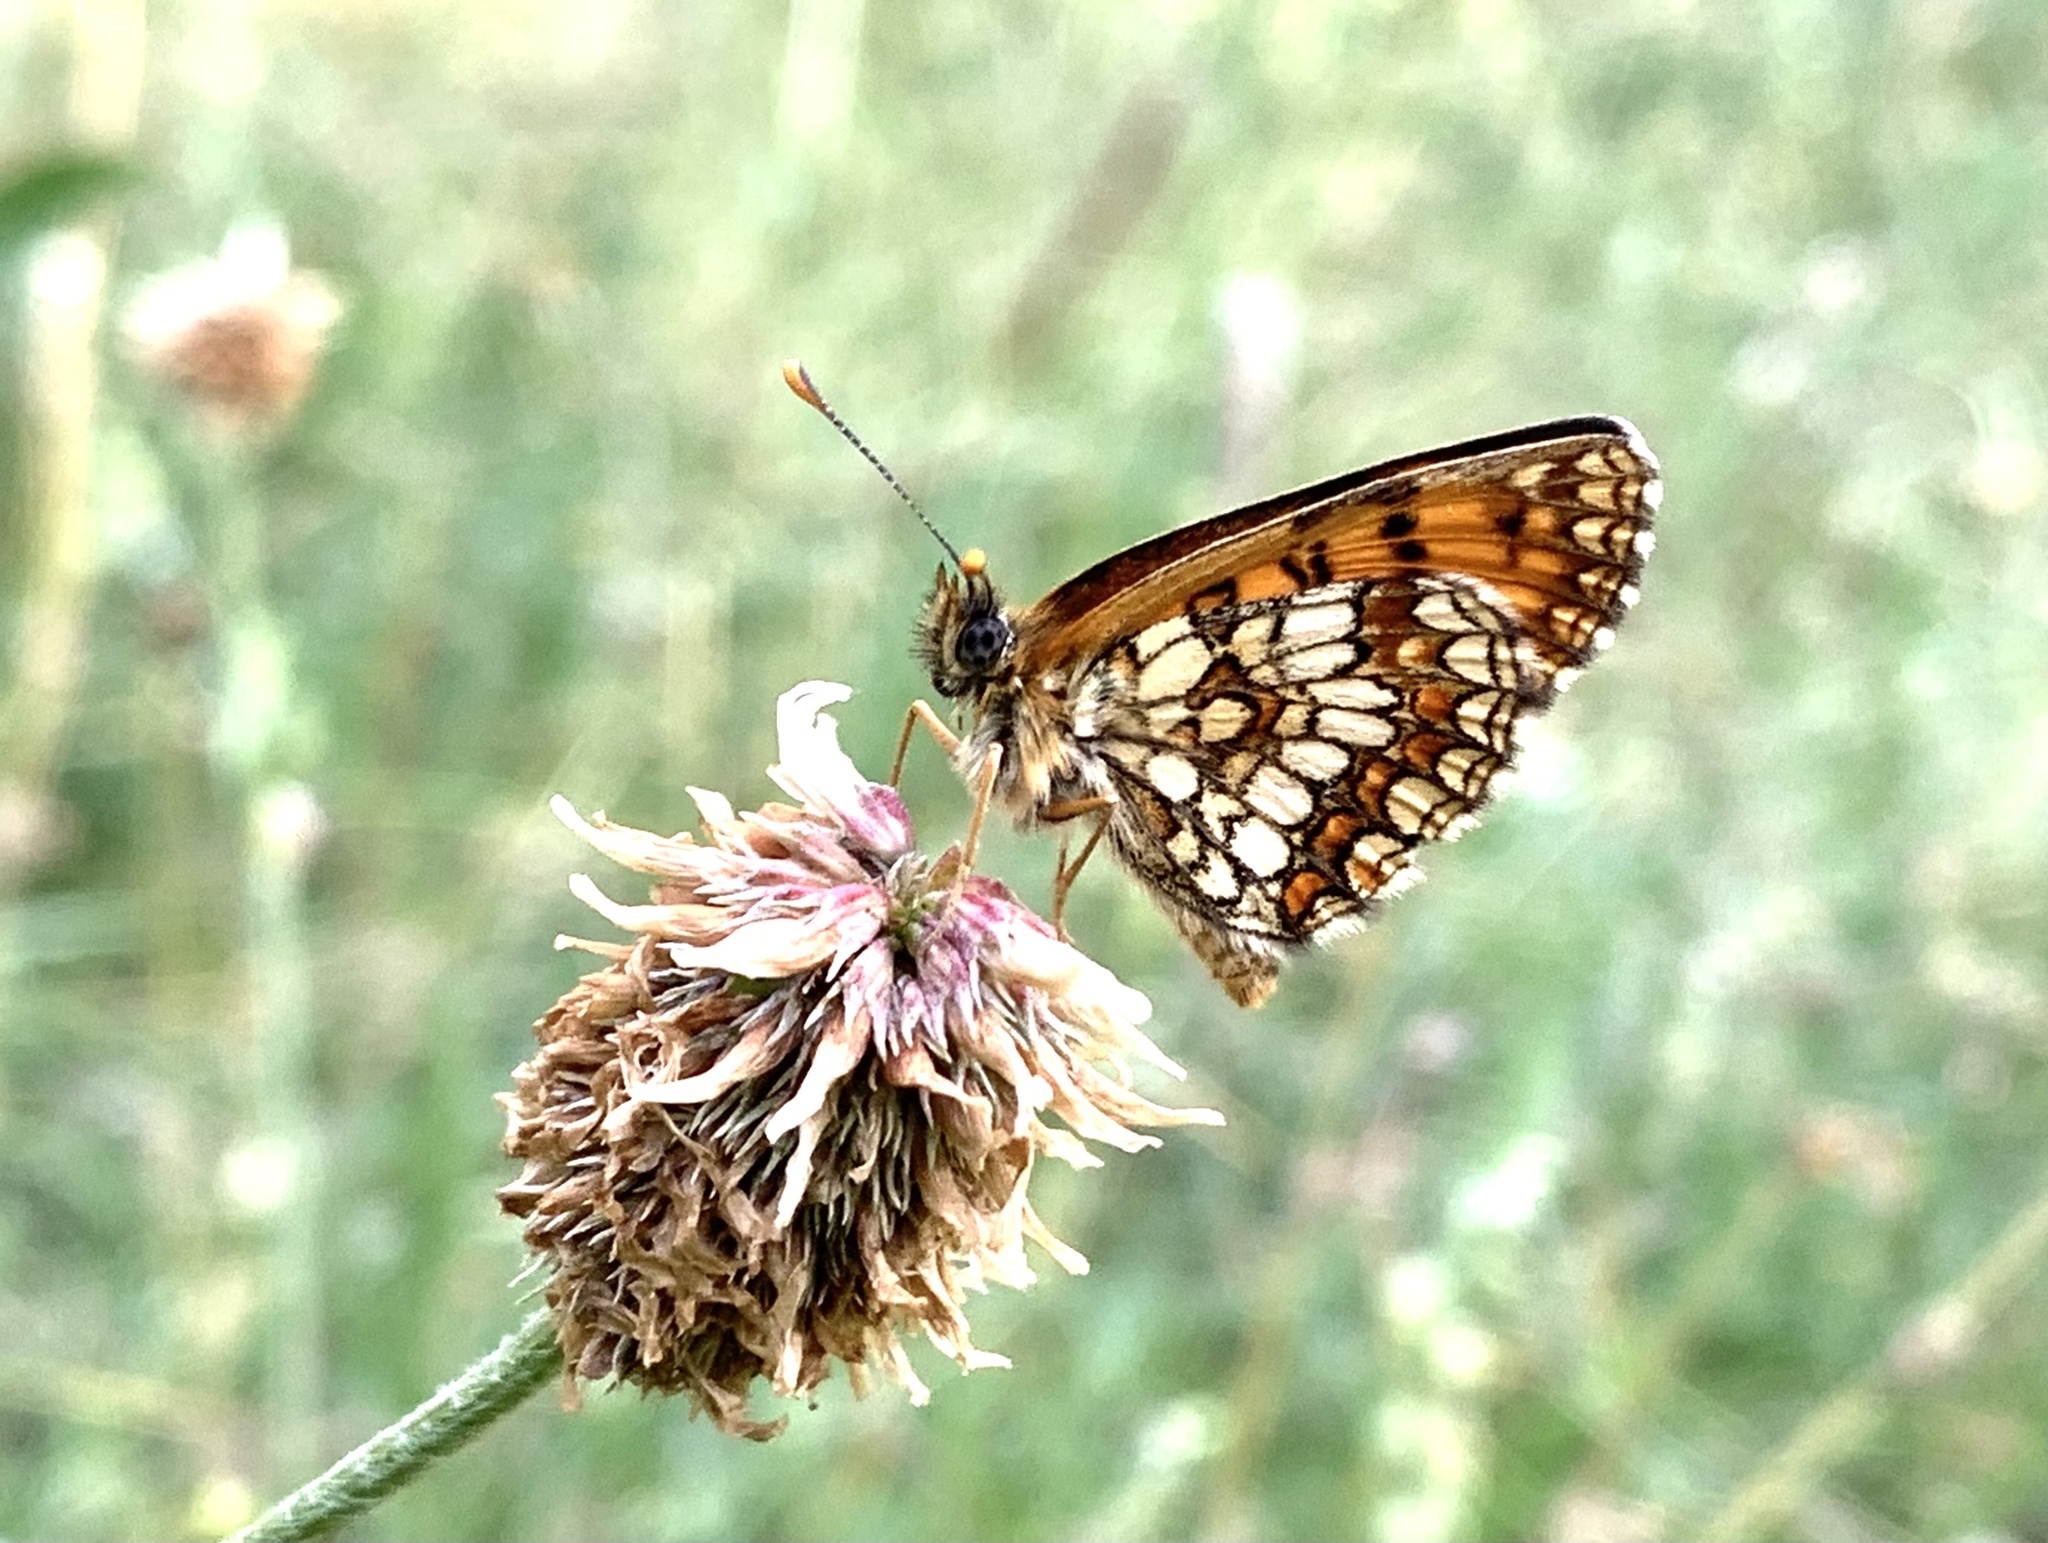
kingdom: Animalia
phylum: Arthropoda
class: Insecta
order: Lepidoptera
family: Nymphalidae
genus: Mellicta
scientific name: Mellicta athalia
